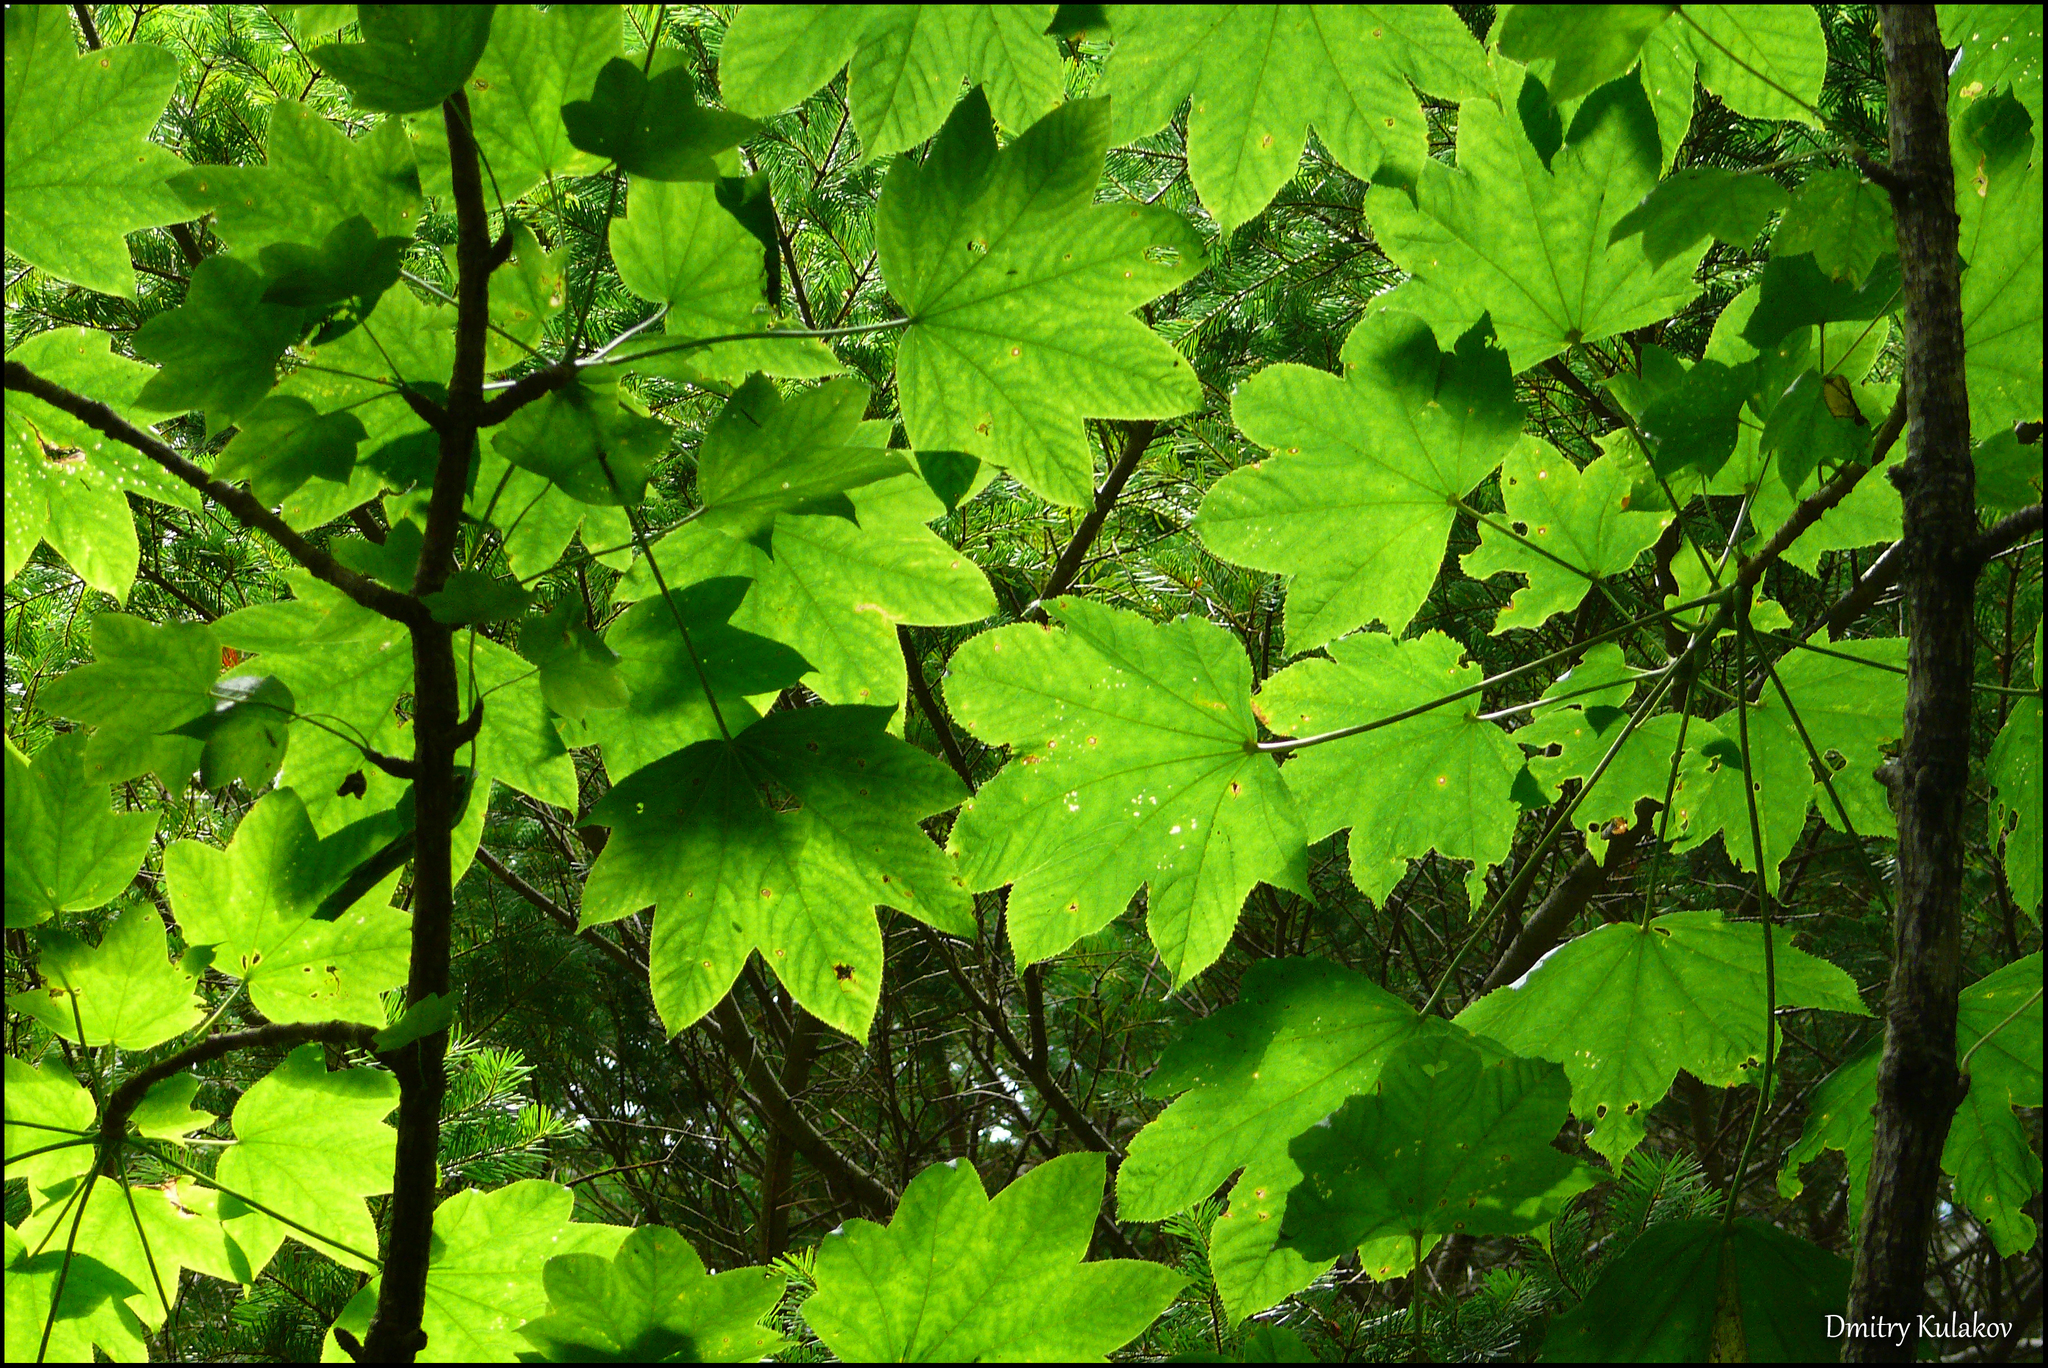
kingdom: Plantae
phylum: Tracheophyta
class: Magnoliopsida
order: Apiales
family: Araliaceae
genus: Kalopanax
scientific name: Kalopanax septemlobus
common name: Castor aralia
